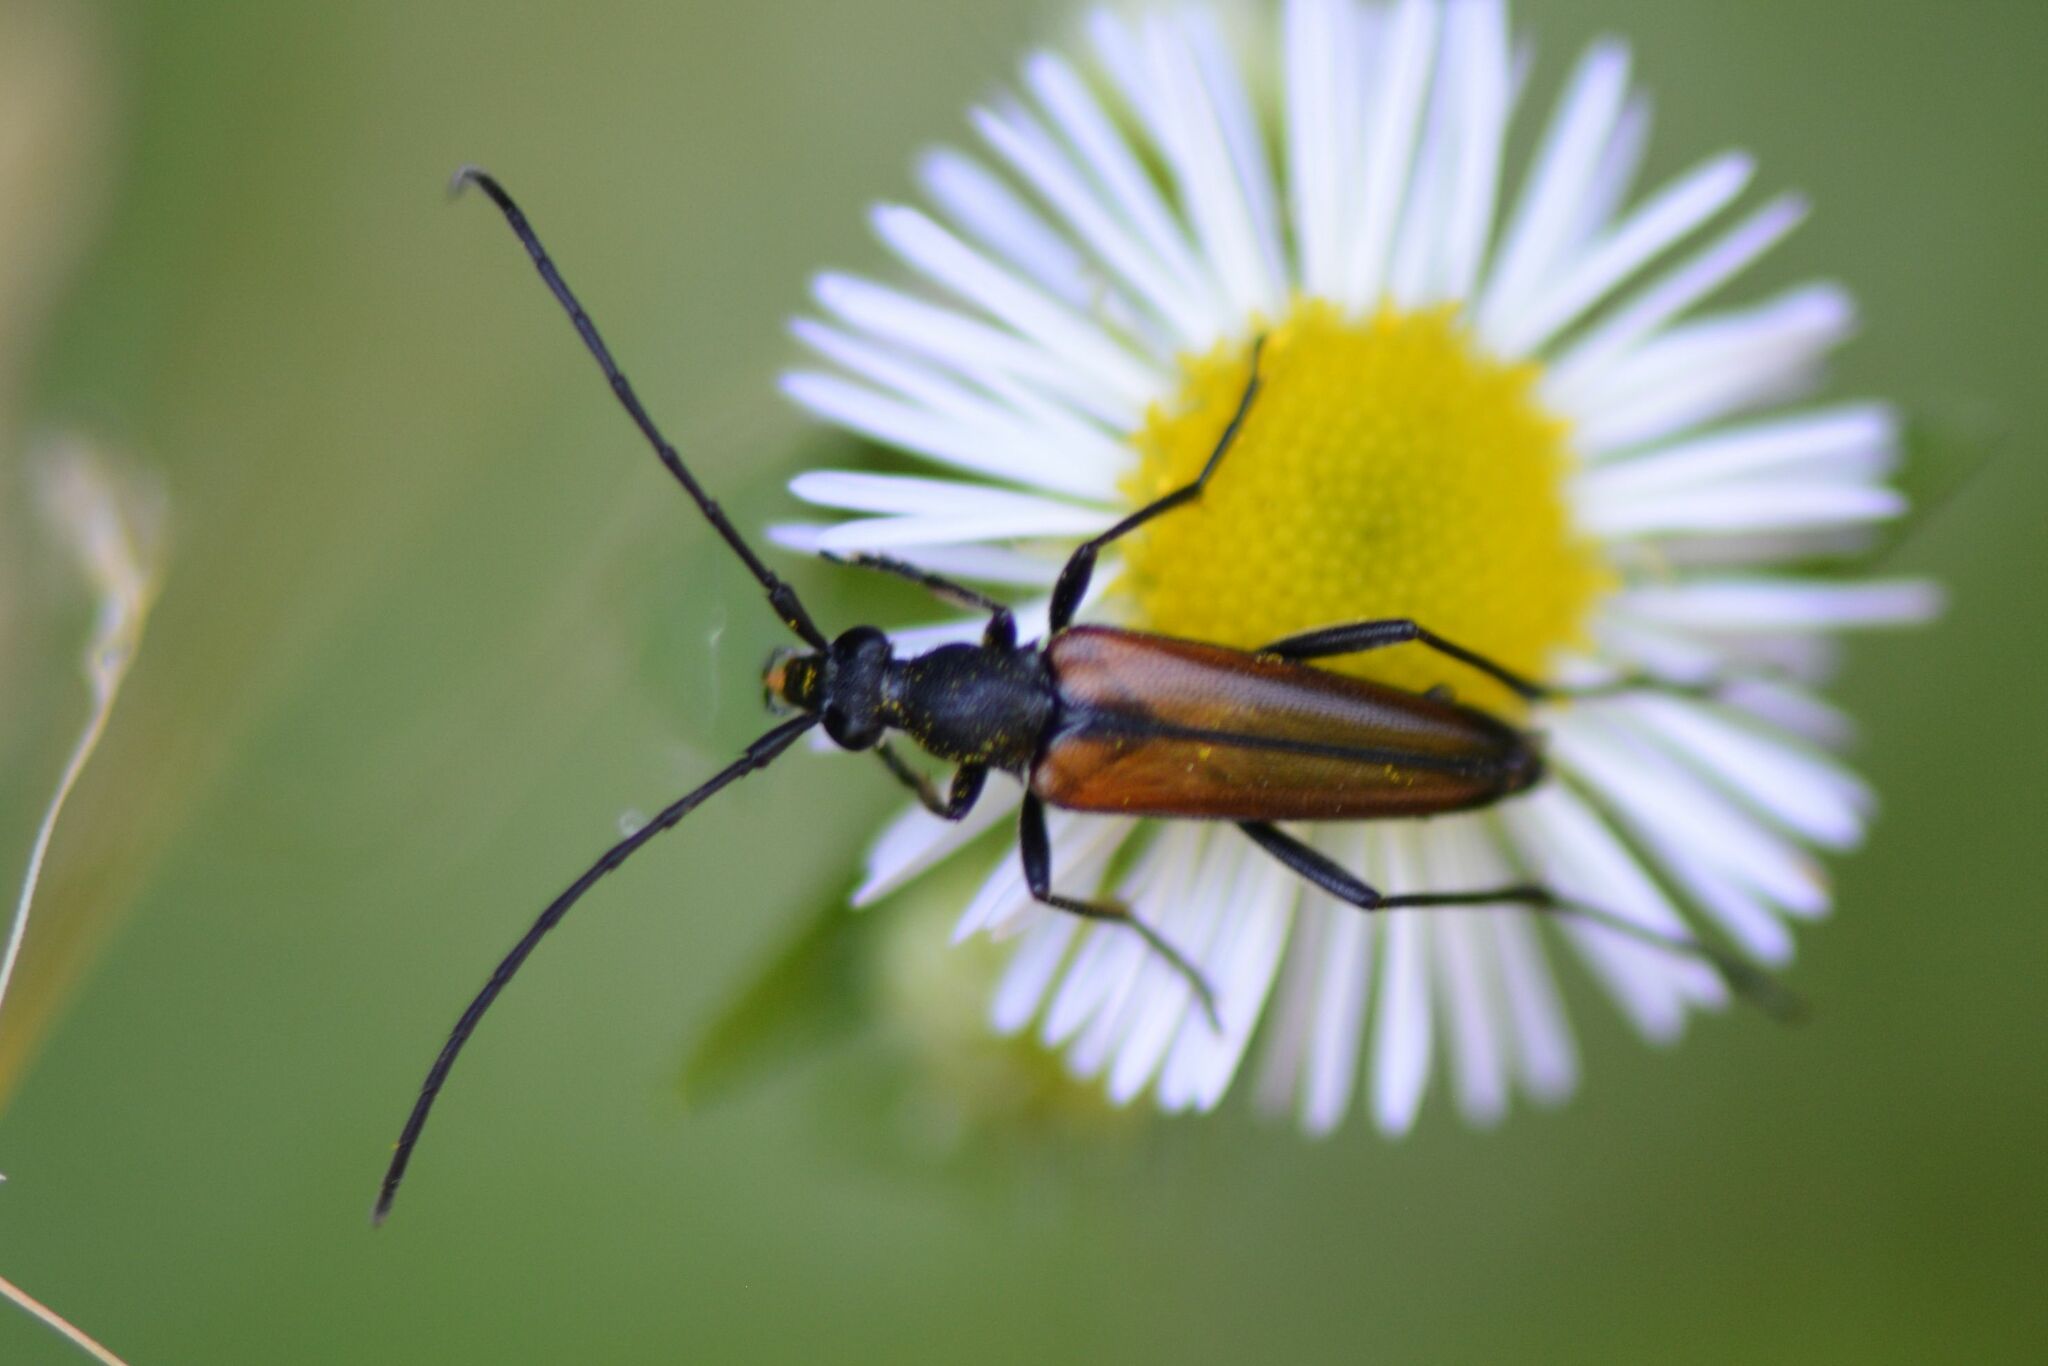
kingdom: Animalia
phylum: Arthropoda
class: Insecta
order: Coleoptera
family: Cerambycidae
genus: Stenurella
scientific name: Stenurella melanura
